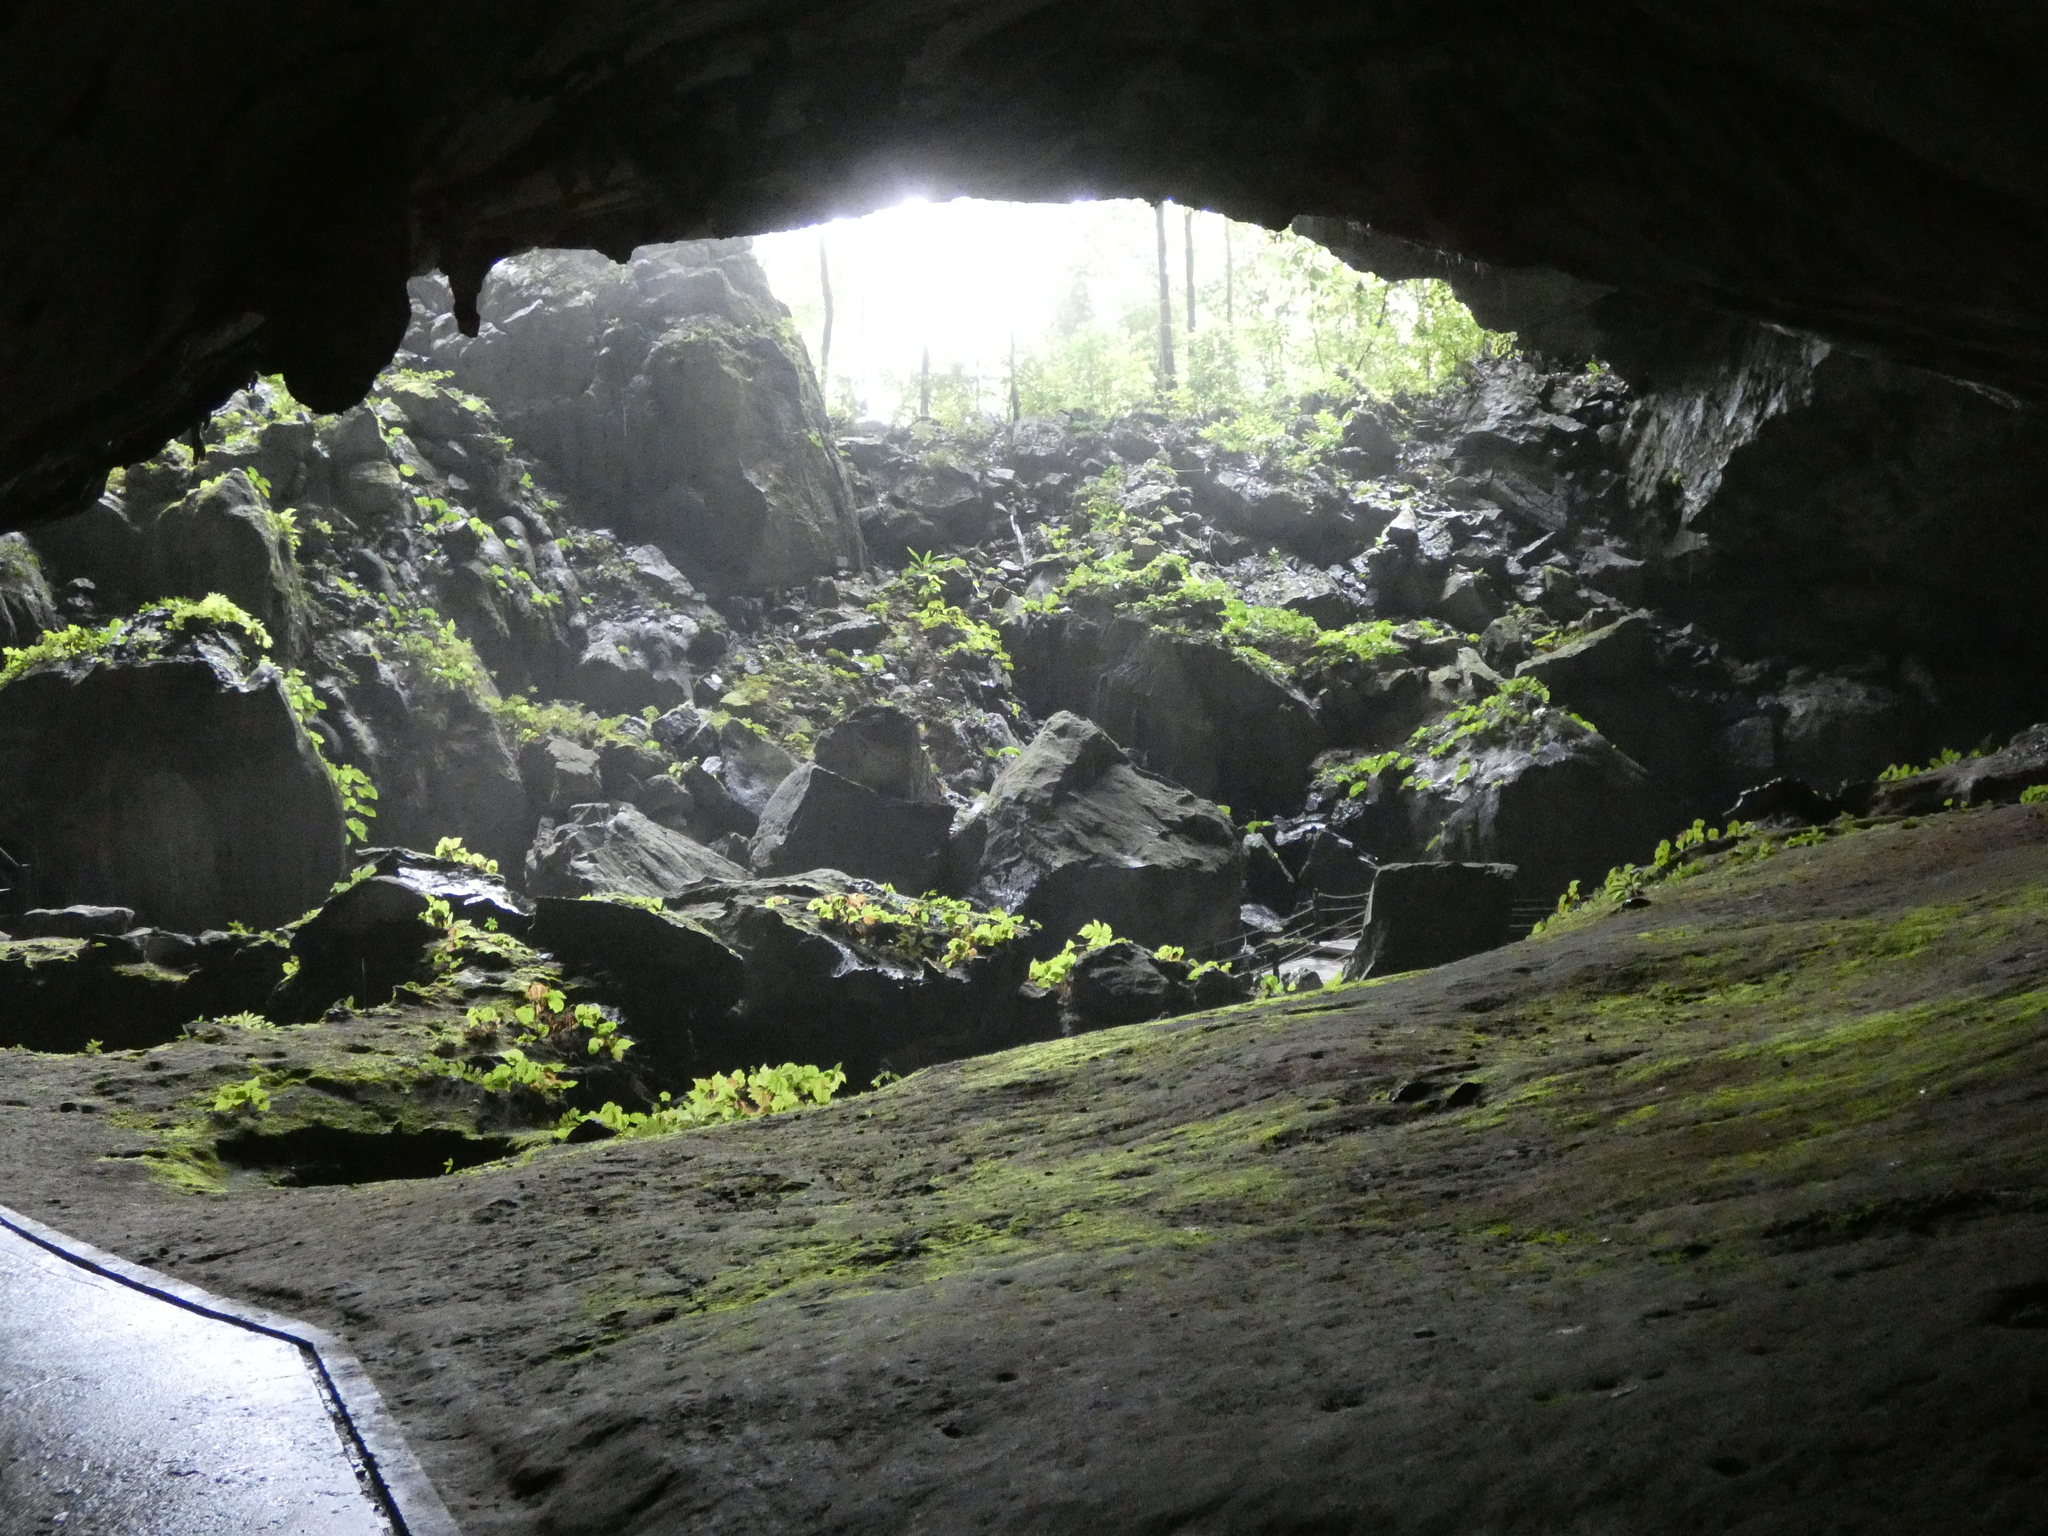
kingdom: Animalia
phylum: Arthropoda
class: Malacostraca
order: Isopoda
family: Scleropactidae
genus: Adinda
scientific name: Adinda platyperaeon
